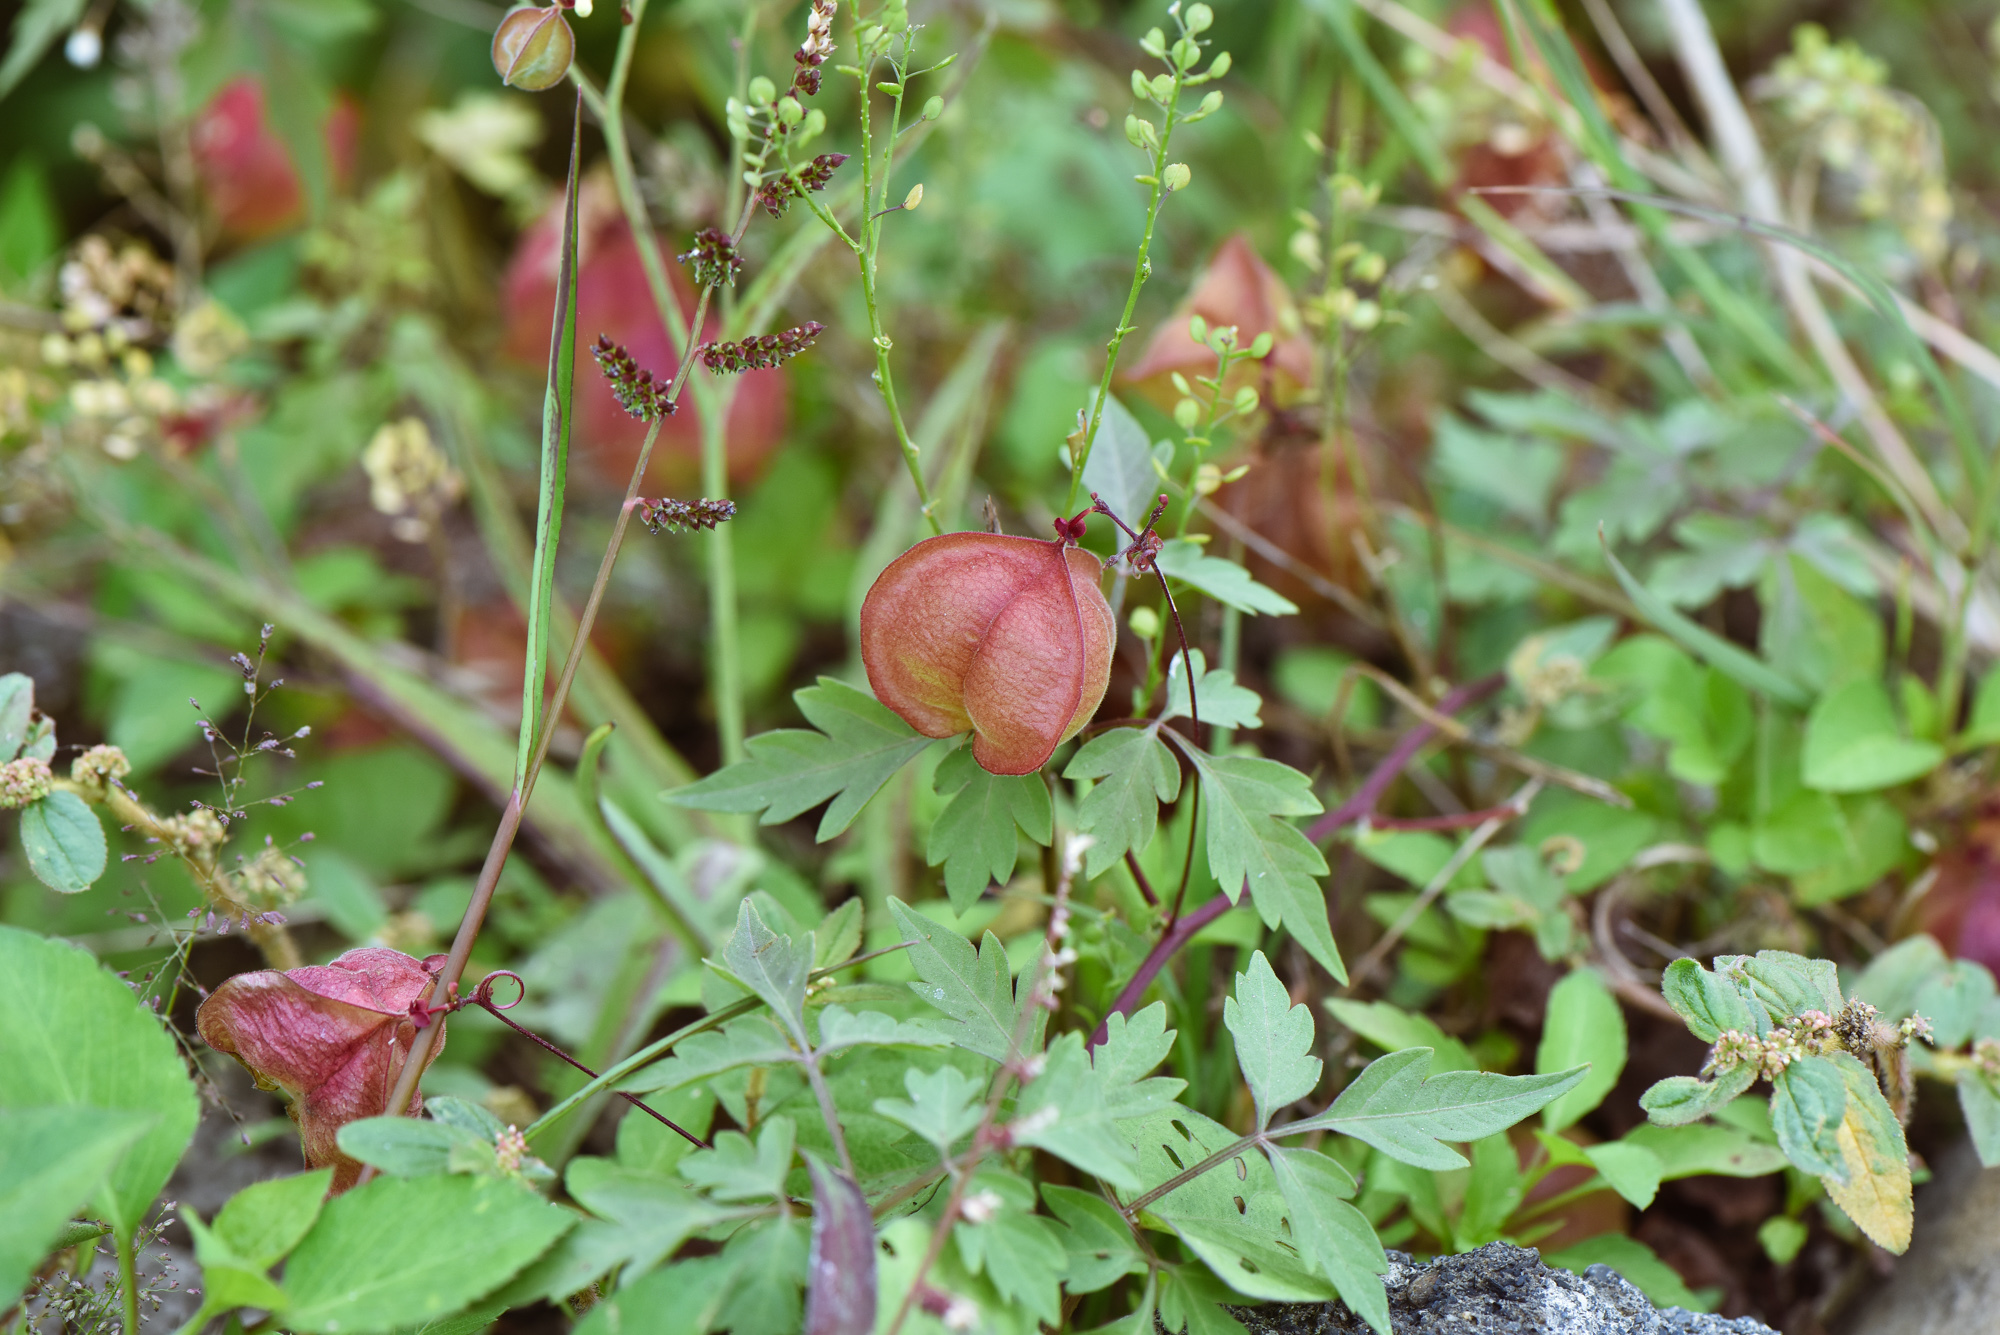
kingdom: Plantae
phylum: Tracheophyta
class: Magnoliopsida
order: Sapindales
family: Sapindaceae
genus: Cardiospermum
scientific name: Cardiospermum halicacabum
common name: Balloon vine
